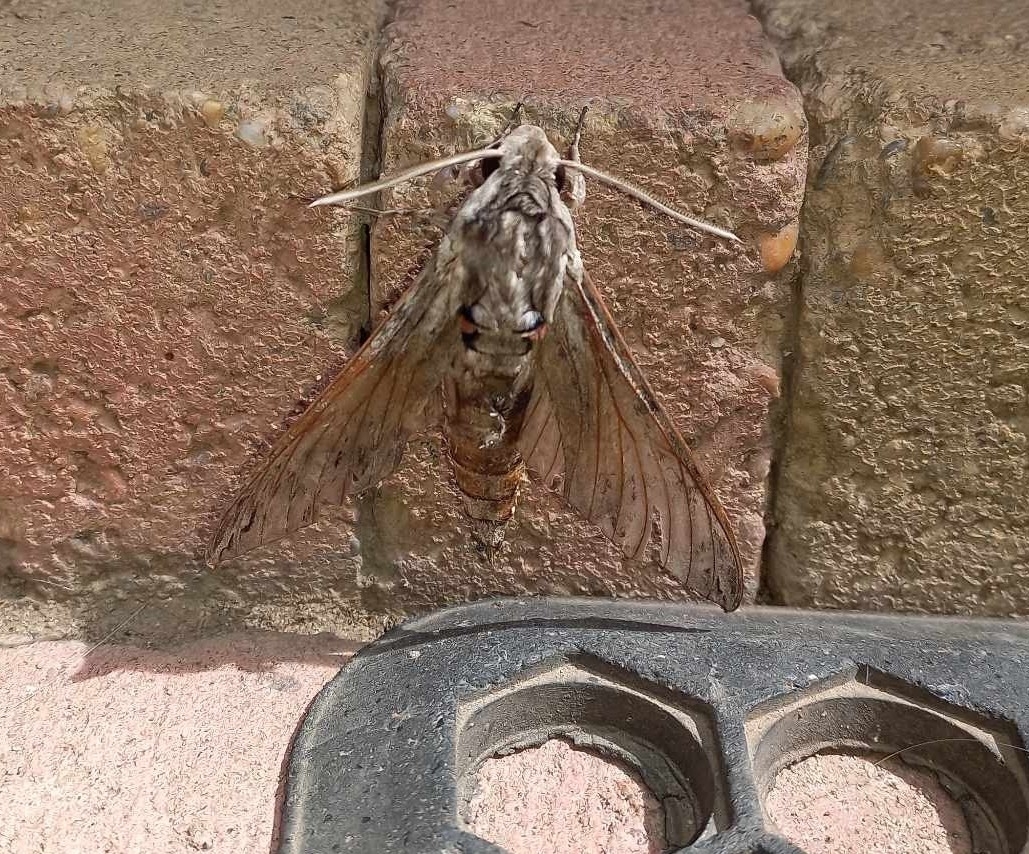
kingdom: Animalia
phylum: Arthropoda
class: Insecta
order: Lepidoptera
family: Sphingidae
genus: Agrius
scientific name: Agrius convolvuli
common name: Convolvulus hawkmoth
